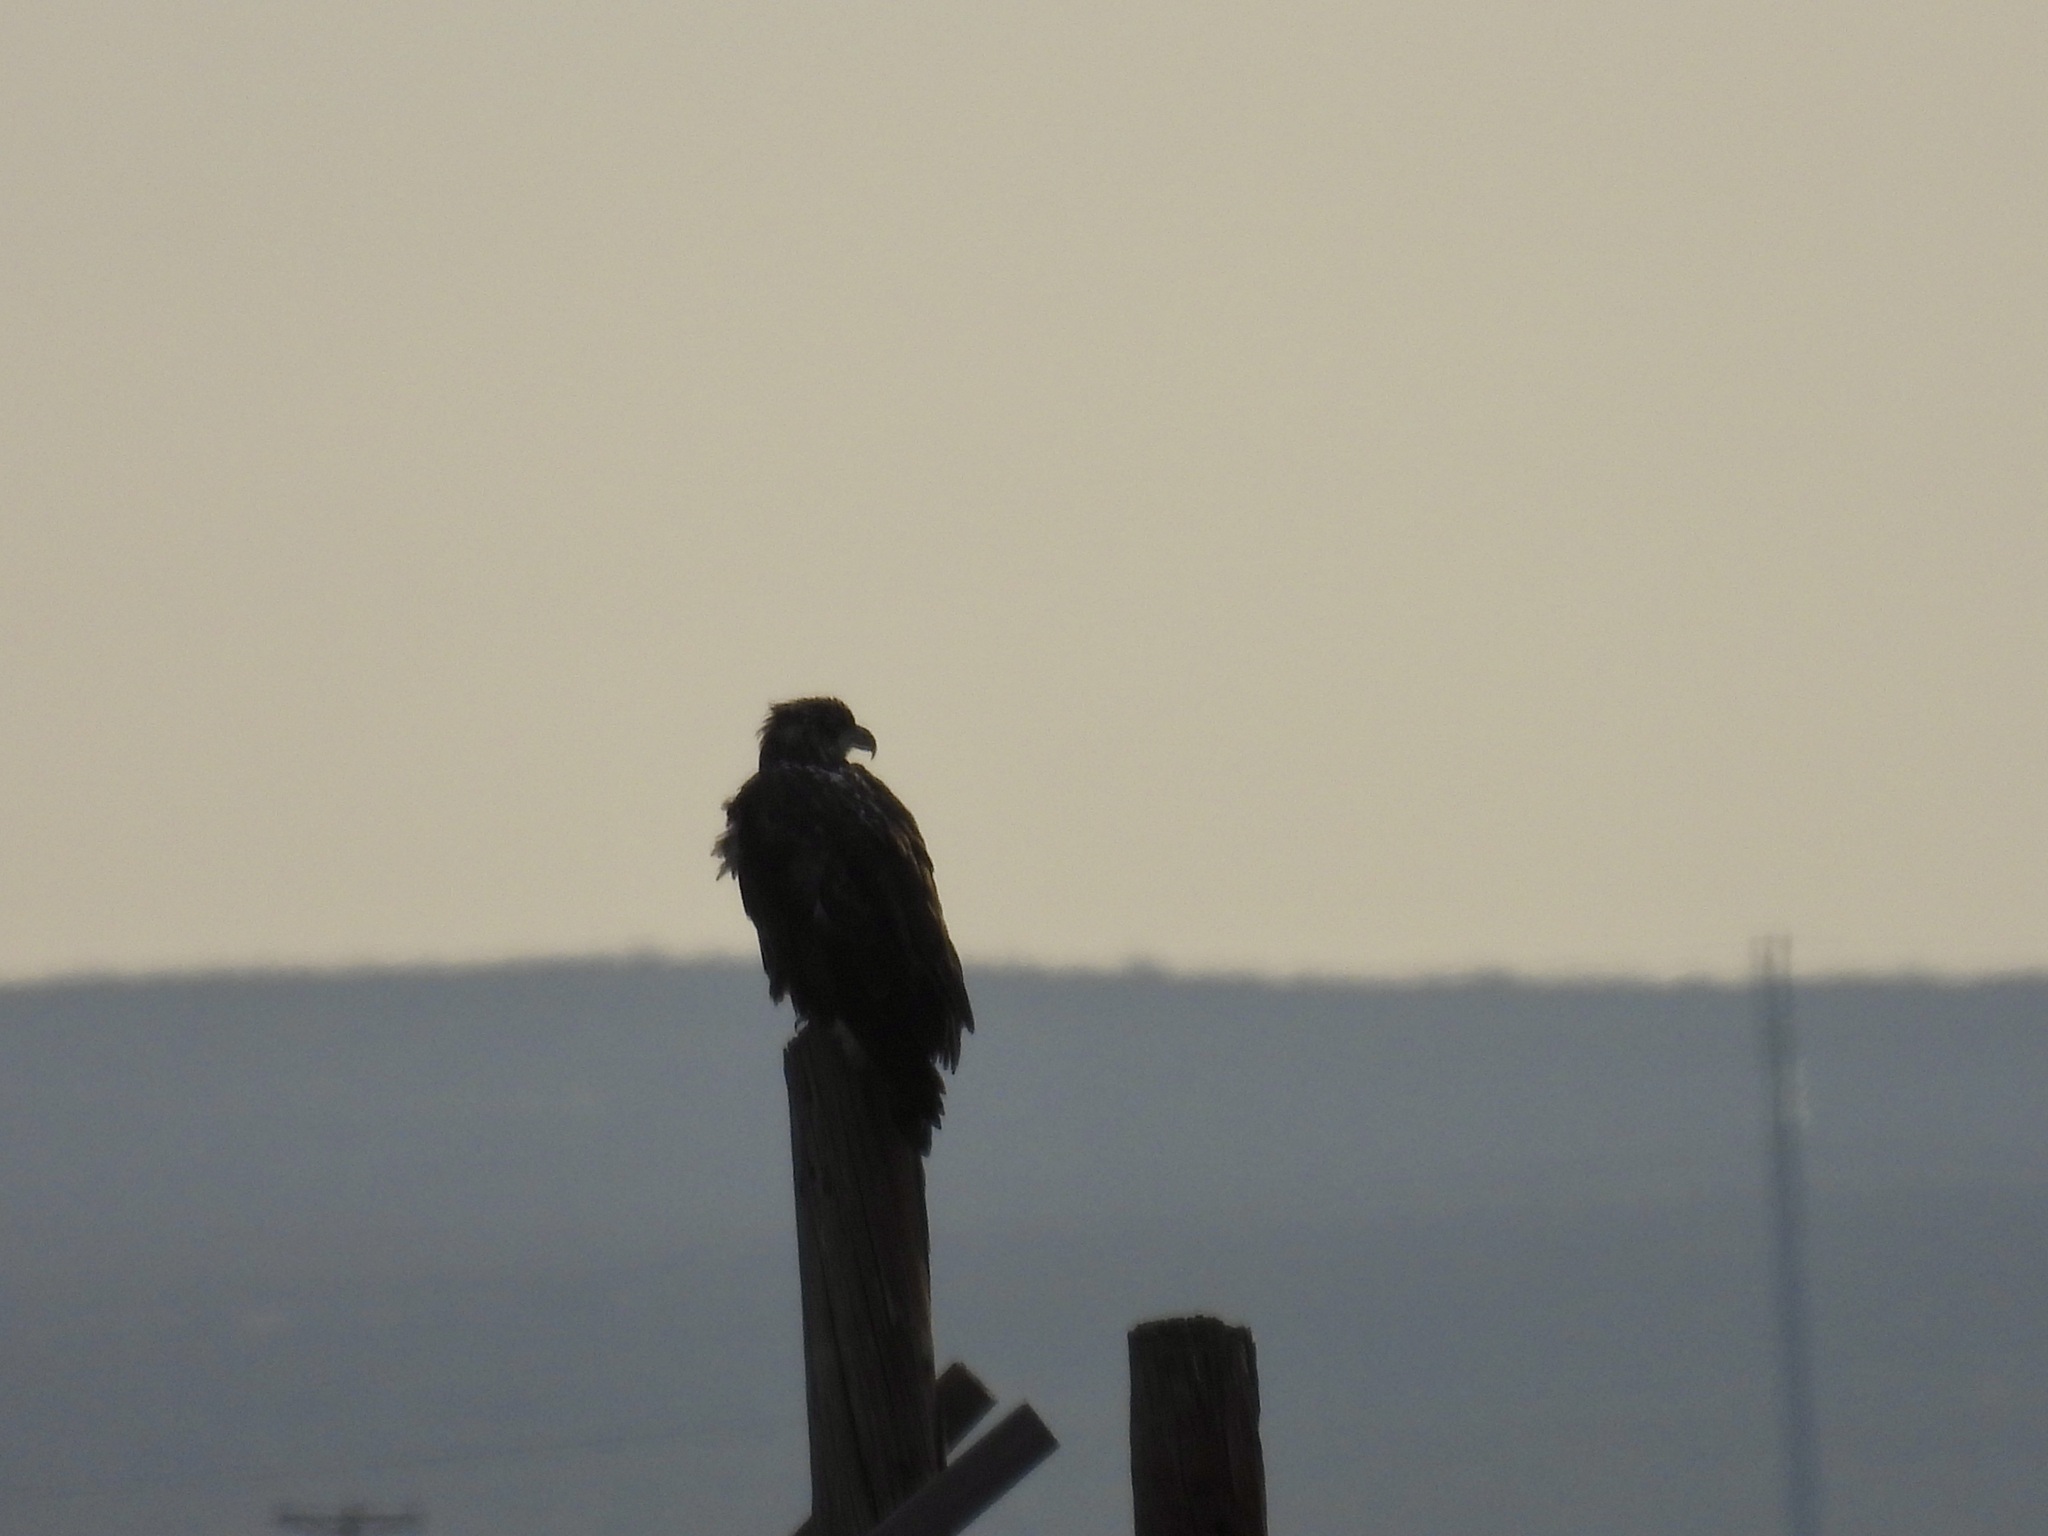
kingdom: Animalia
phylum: Chordata
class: Aves
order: Accipitriformes
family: Accipitridae
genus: Haliaeetus
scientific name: Haliaeetus leucocephalus
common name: Bald eagle
